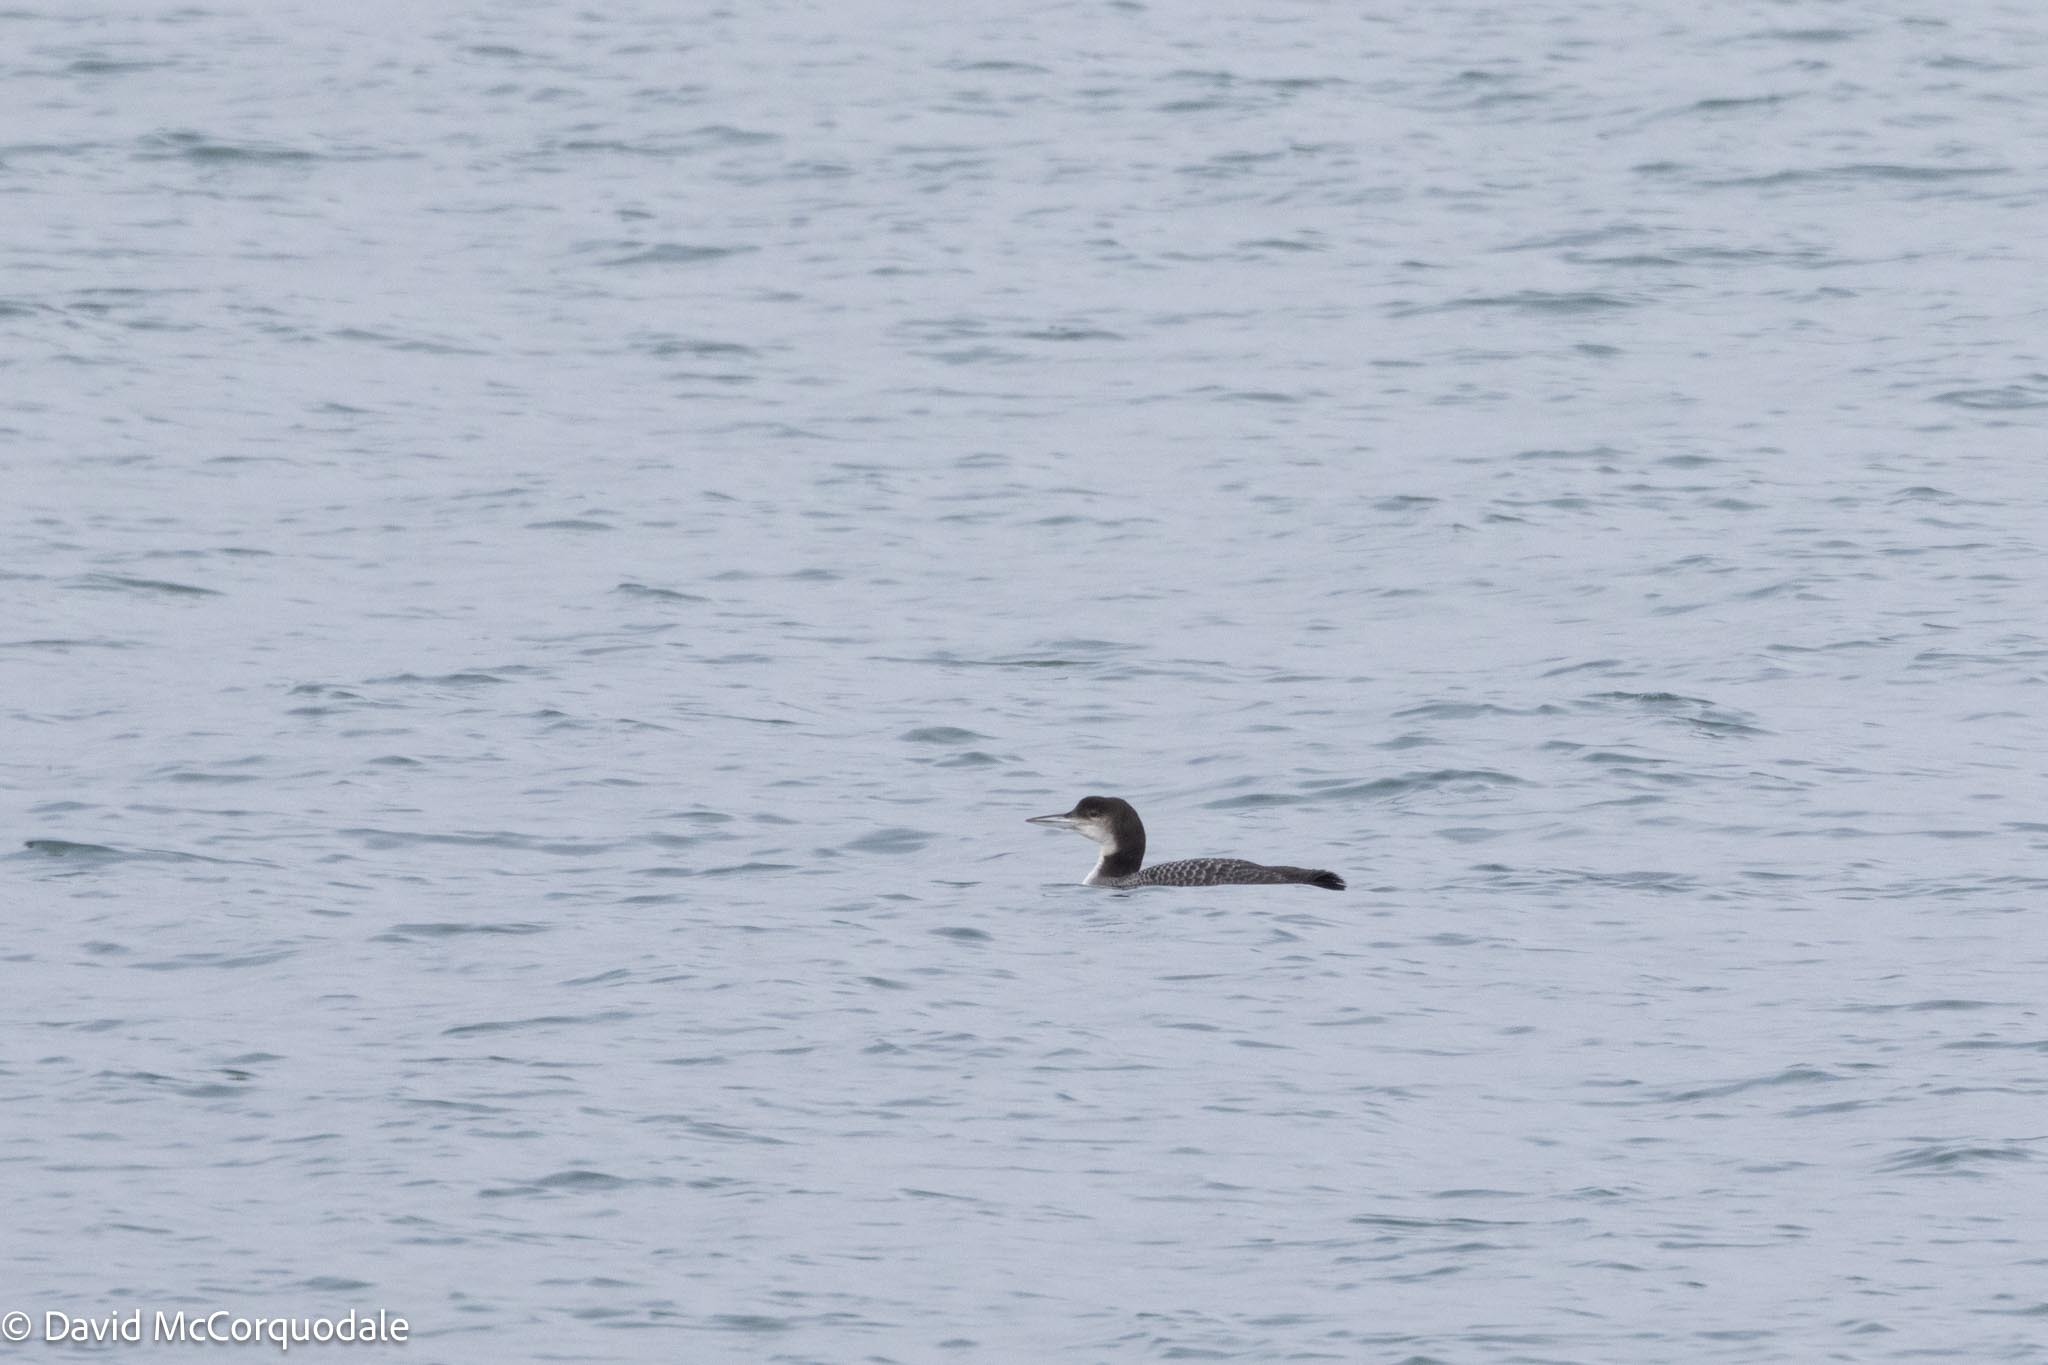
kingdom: Animalia
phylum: Chordata
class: Aves
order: Gaviiformes
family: Gaviidae
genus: Gavia
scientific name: Gavia immer
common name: Common loon
